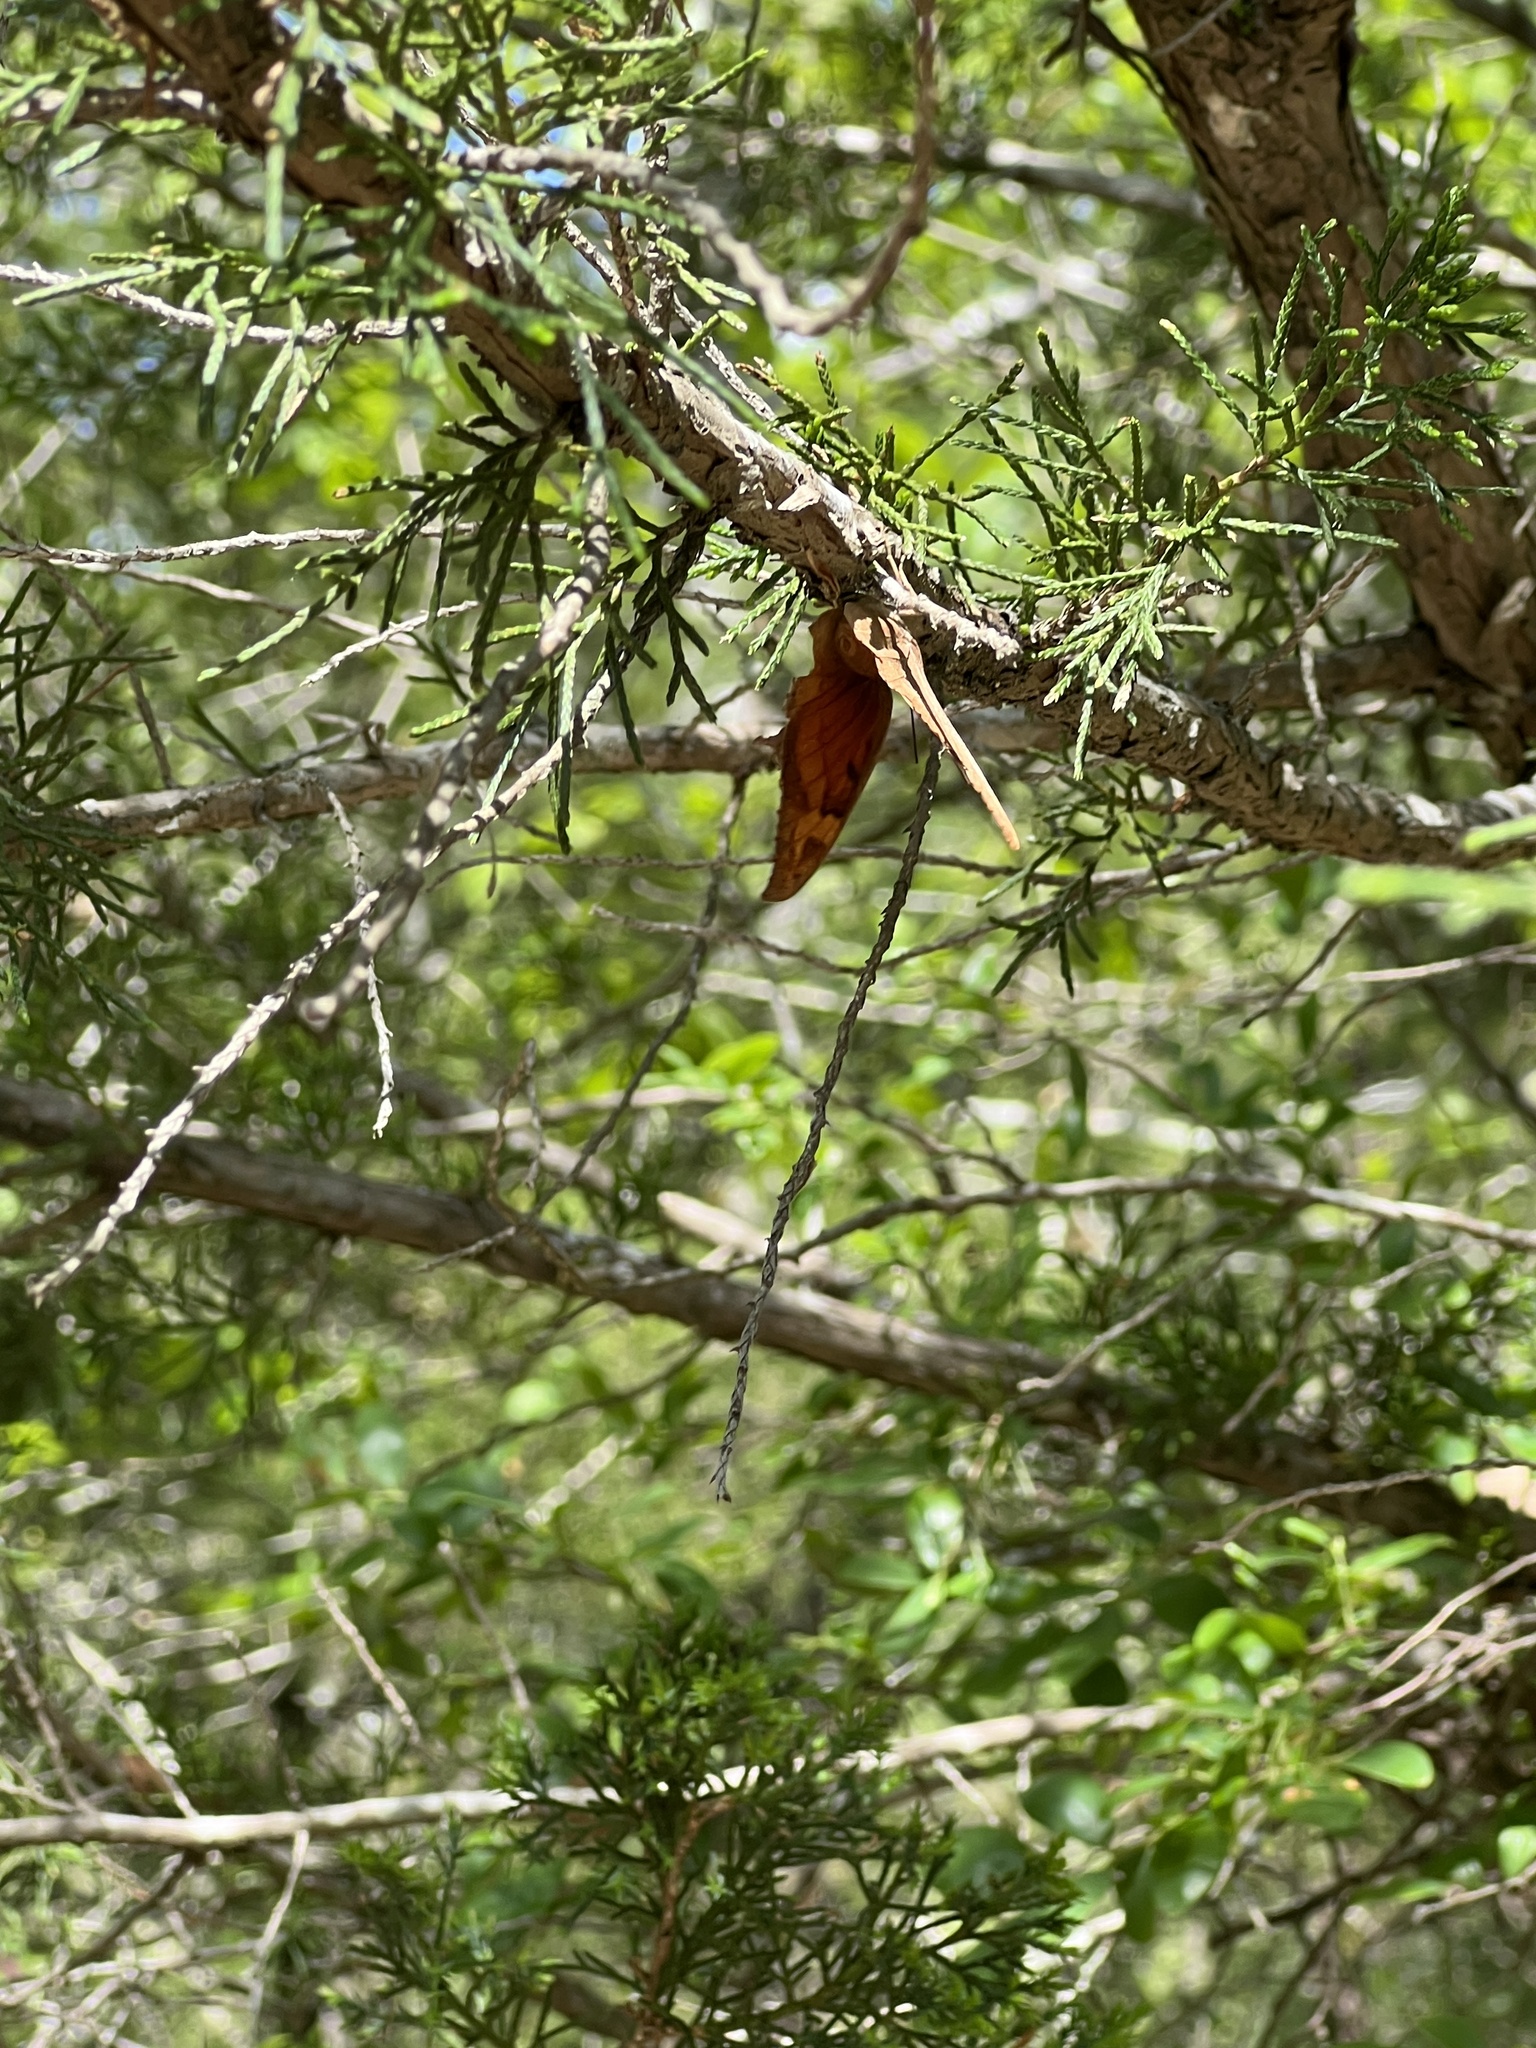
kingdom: Animalia
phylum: Arthropoda
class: Insecta
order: Lepidoptera
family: Nymphalidae
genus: Anaea
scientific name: Anaea andria
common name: Goatweed leafwing
